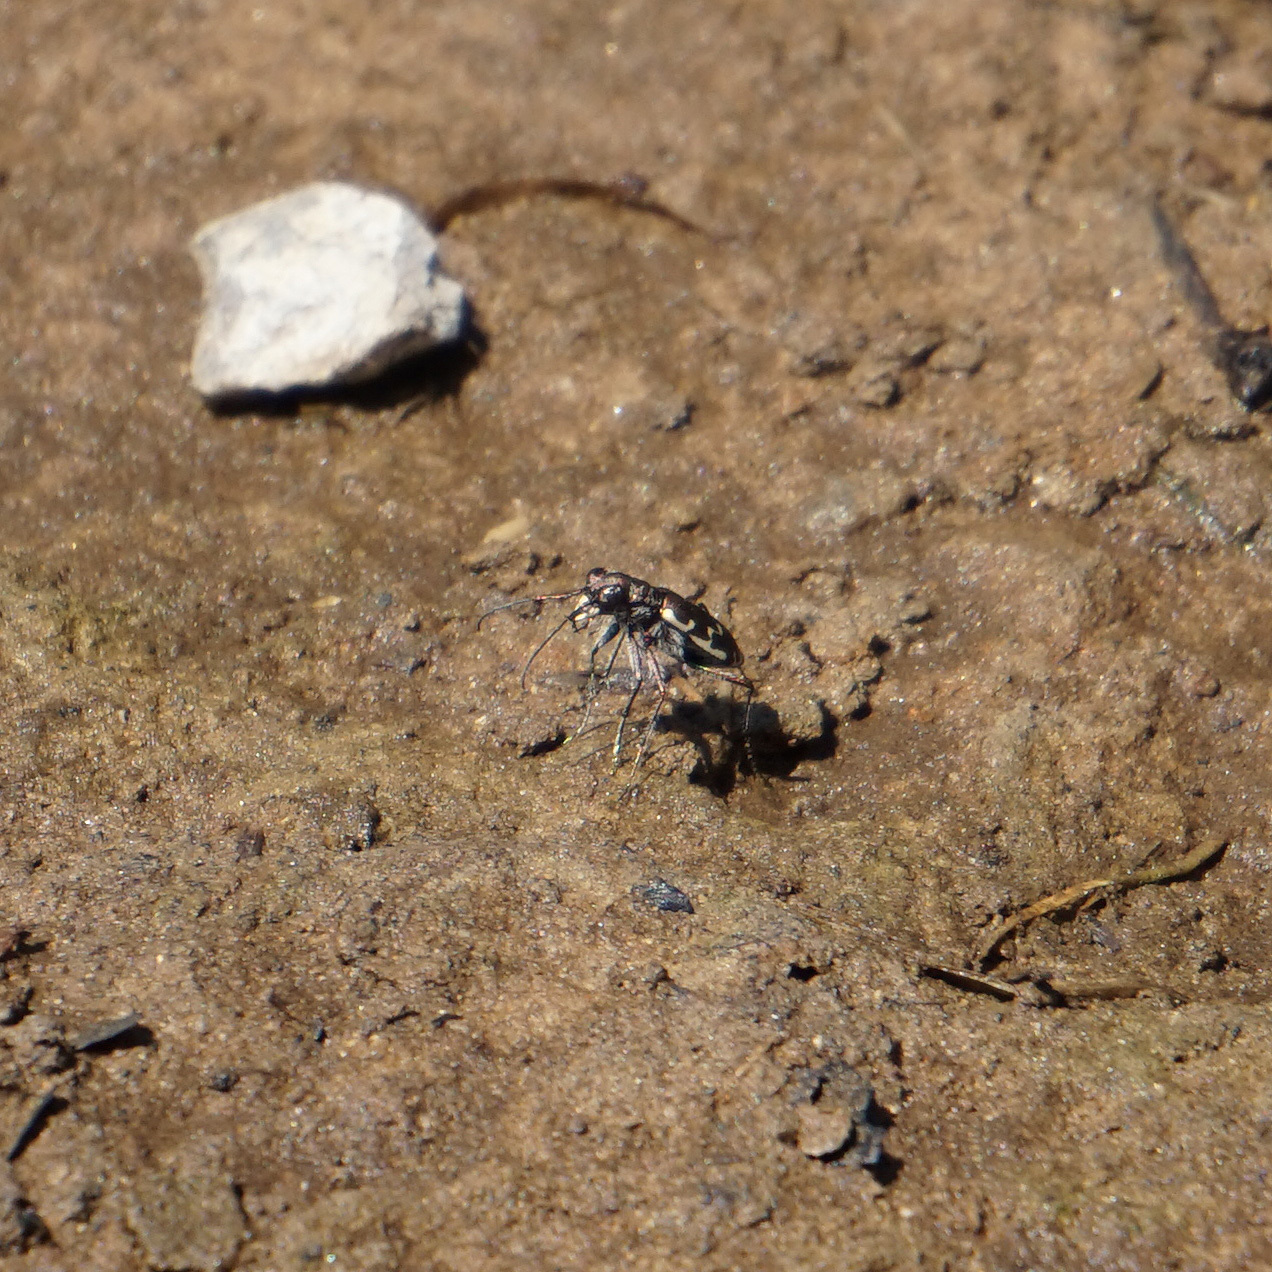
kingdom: Animalia
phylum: Arthropoda
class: Insecta
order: Coleoptera
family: Carabidae
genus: Cicindela
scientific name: Cicindela repanda
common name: Bronzed tiger beetle
